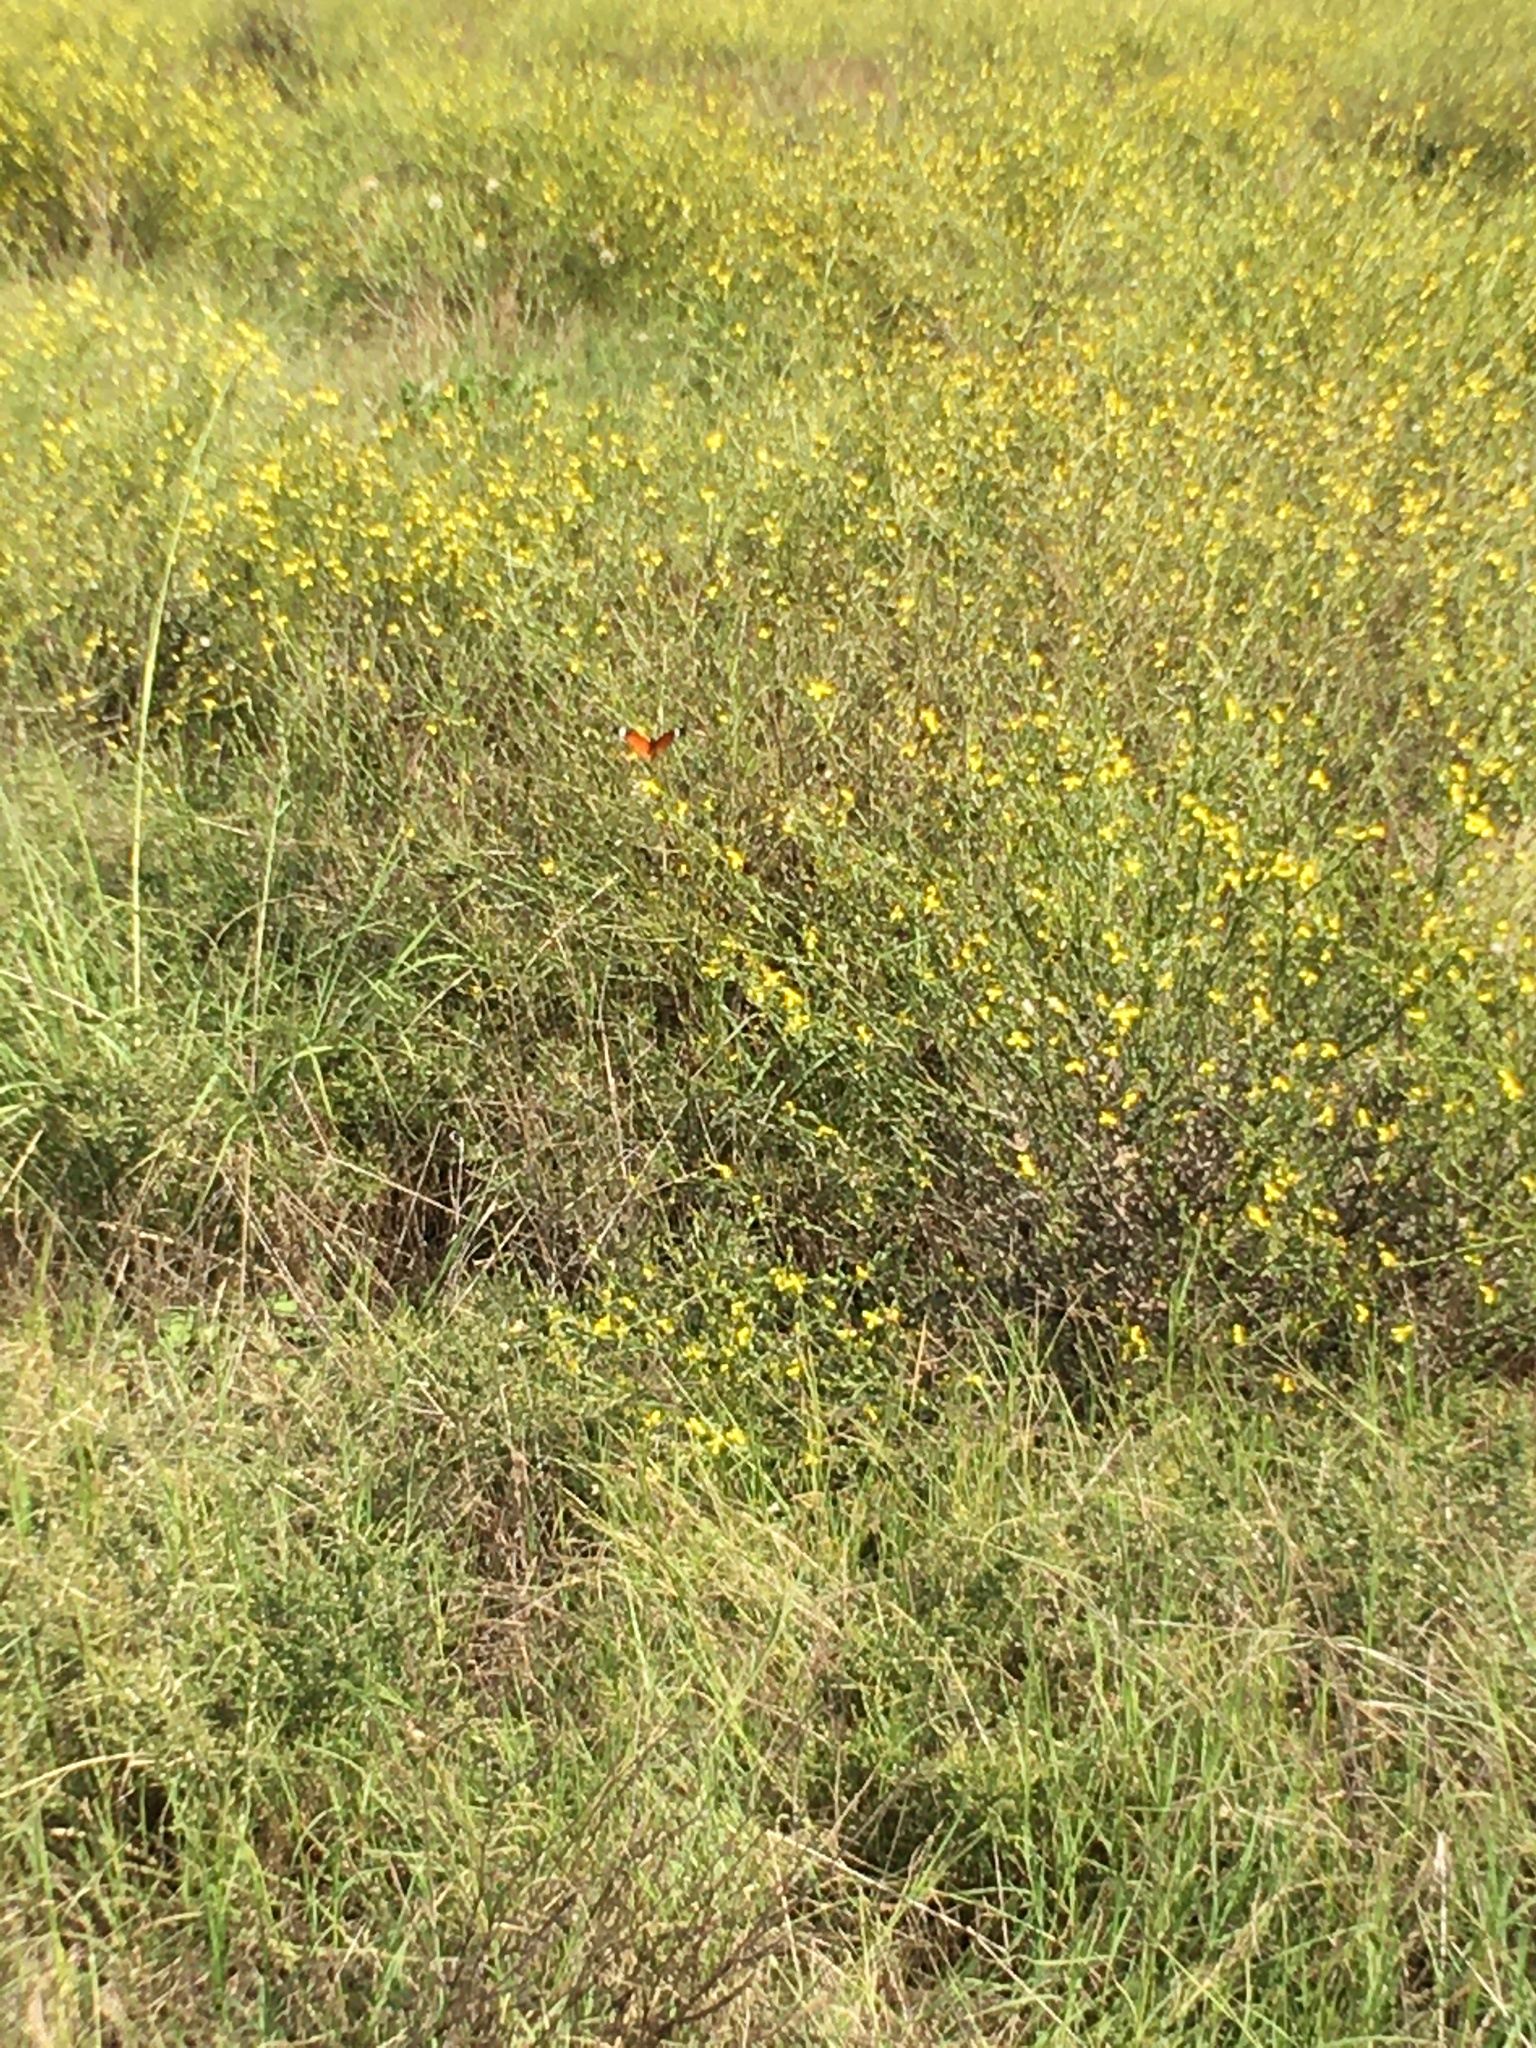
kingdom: Animalia
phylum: Arthropoda
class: Insecta
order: Lepidoptera
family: Nymphalidae
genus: Danaus
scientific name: Danaus chrysippus
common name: Plain tiger
